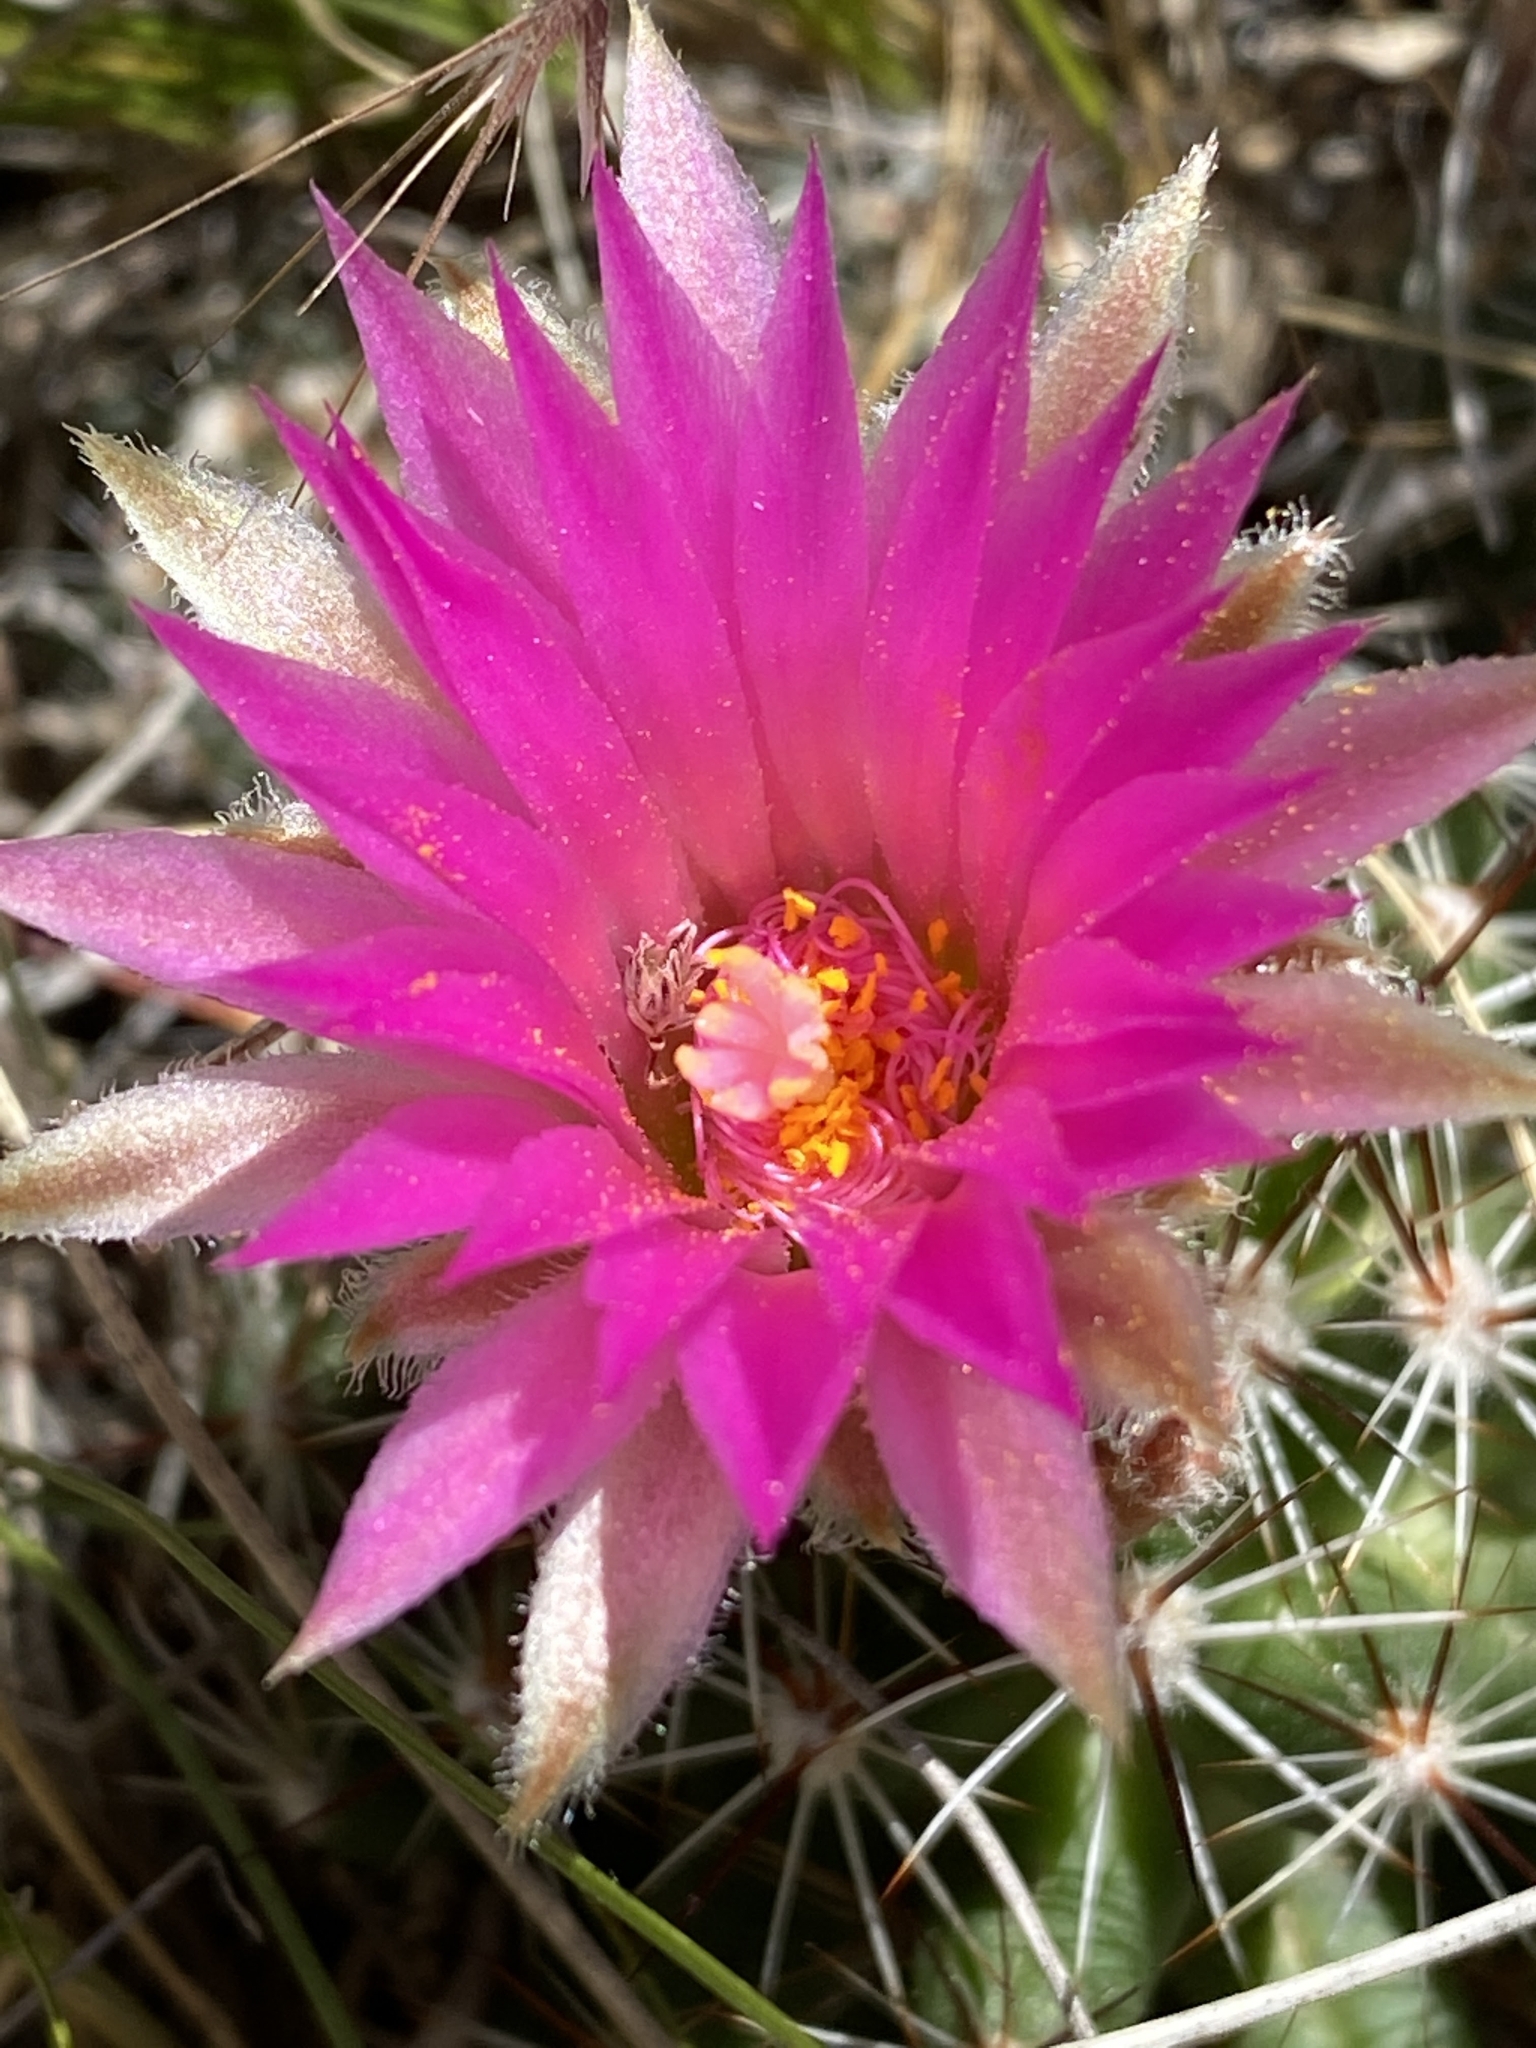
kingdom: Plantae
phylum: Tracheophyta
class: Magnoliopsida
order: Caryophyllales
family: Cactaceae
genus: Pelecyphora
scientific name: Pelecyphora vivipara
